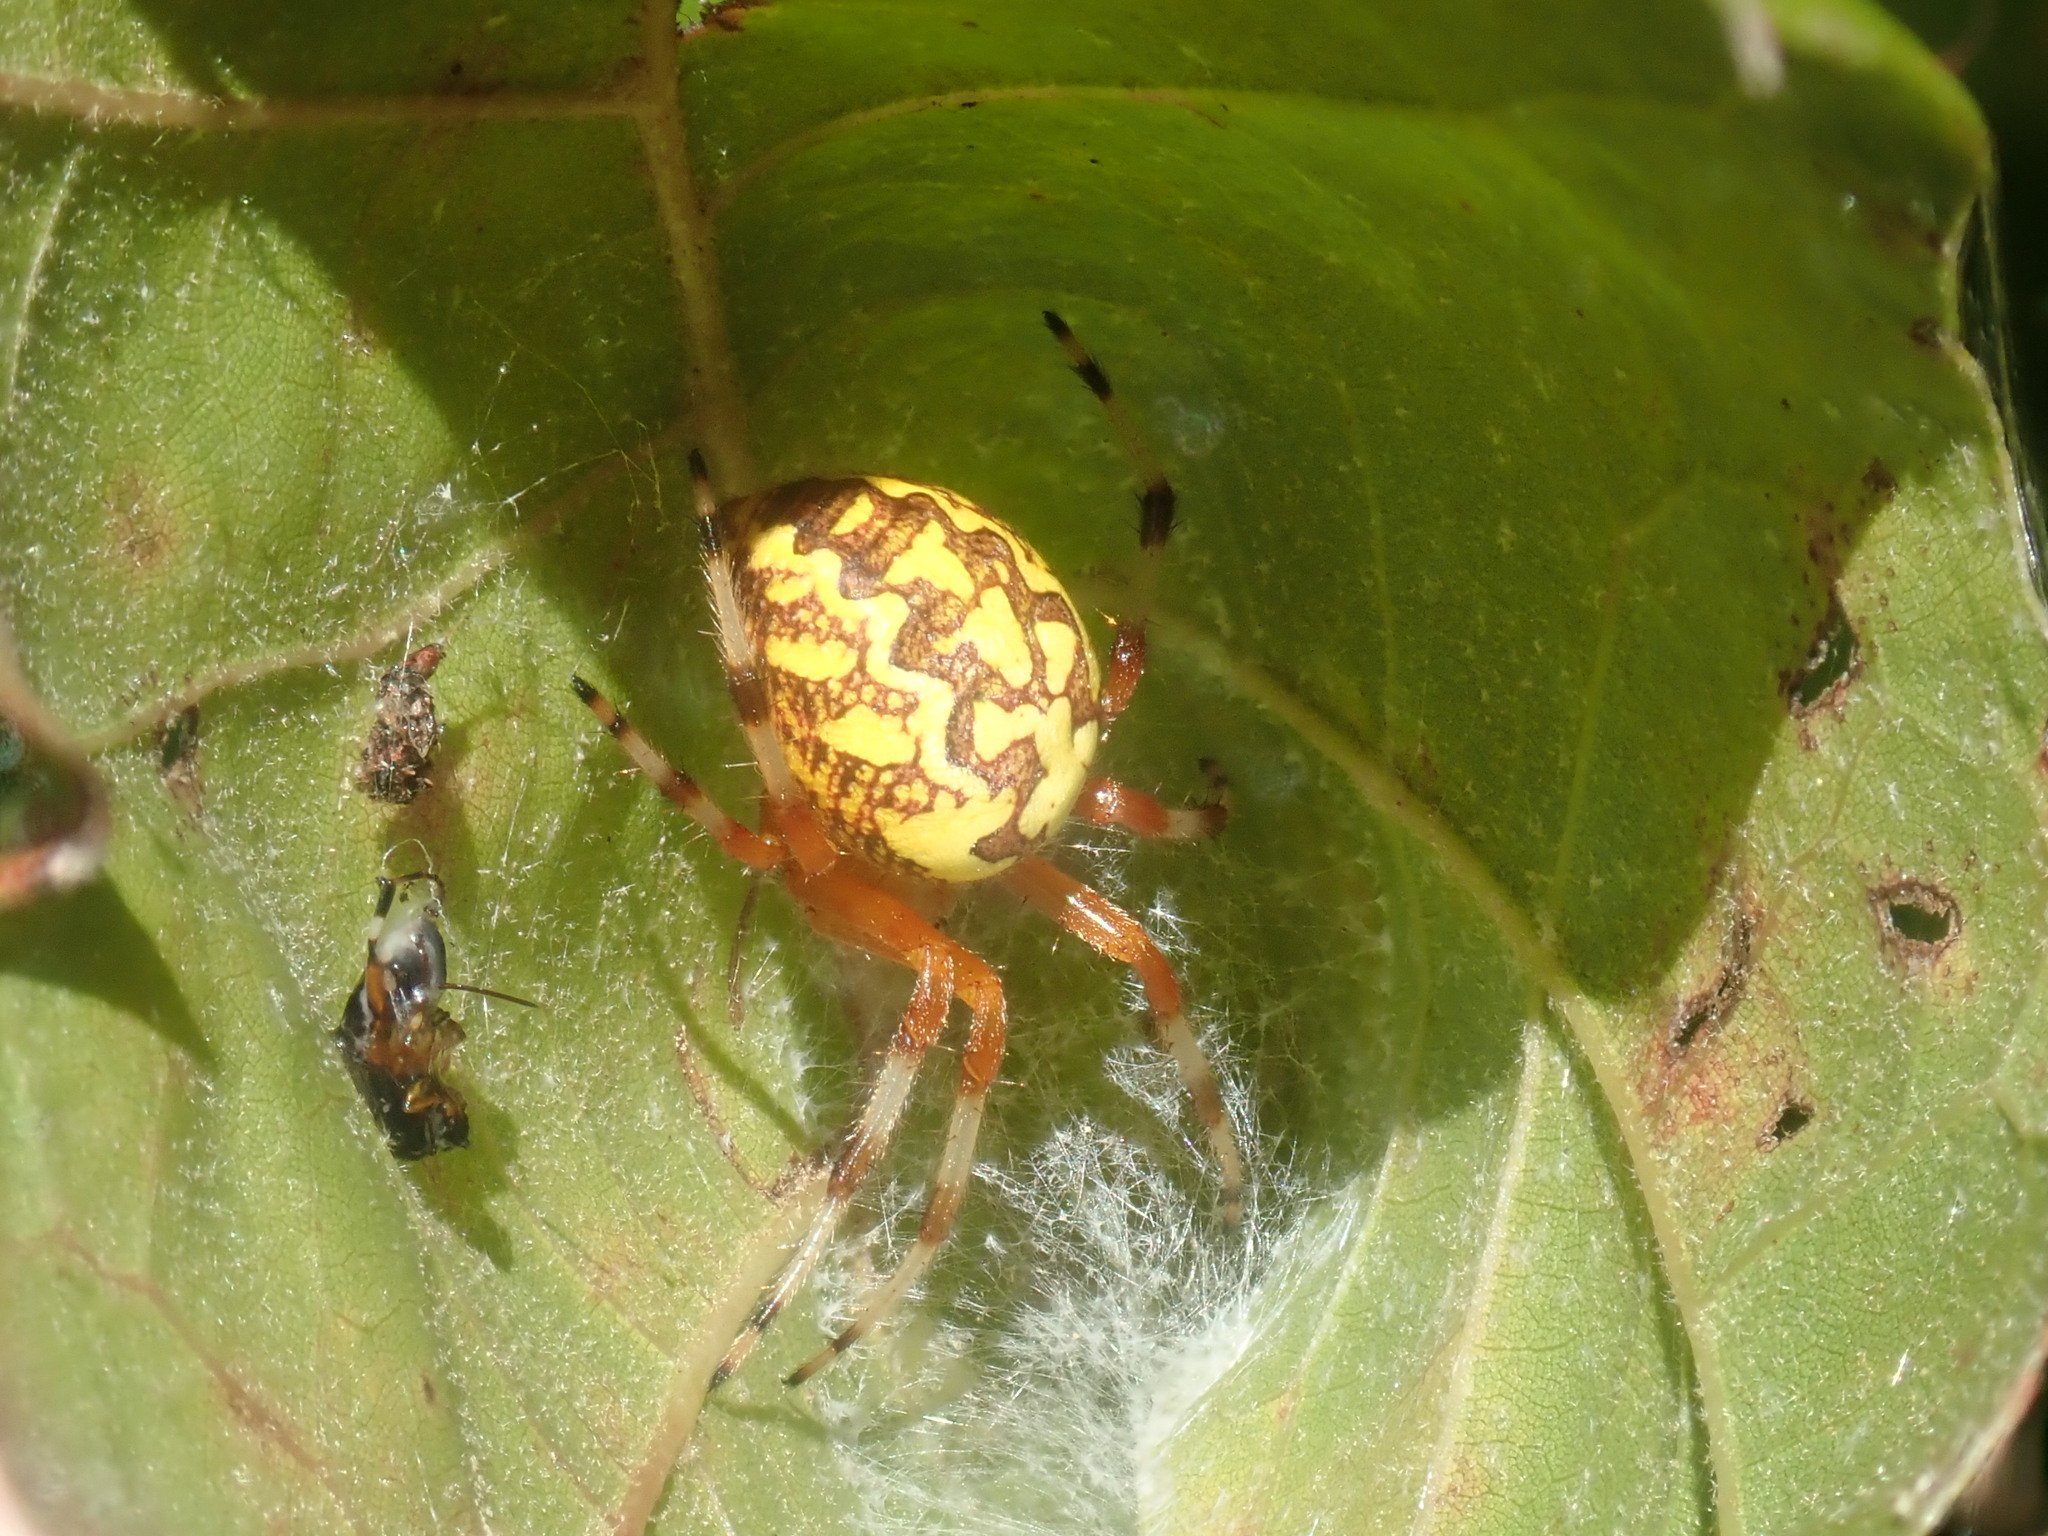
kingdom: Animalia
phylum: Arthropoda
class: Arachnida
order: Araneae
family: Araneidae
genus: Araneus
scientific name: Araneus marmoreus
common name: Marbled orbweaver
